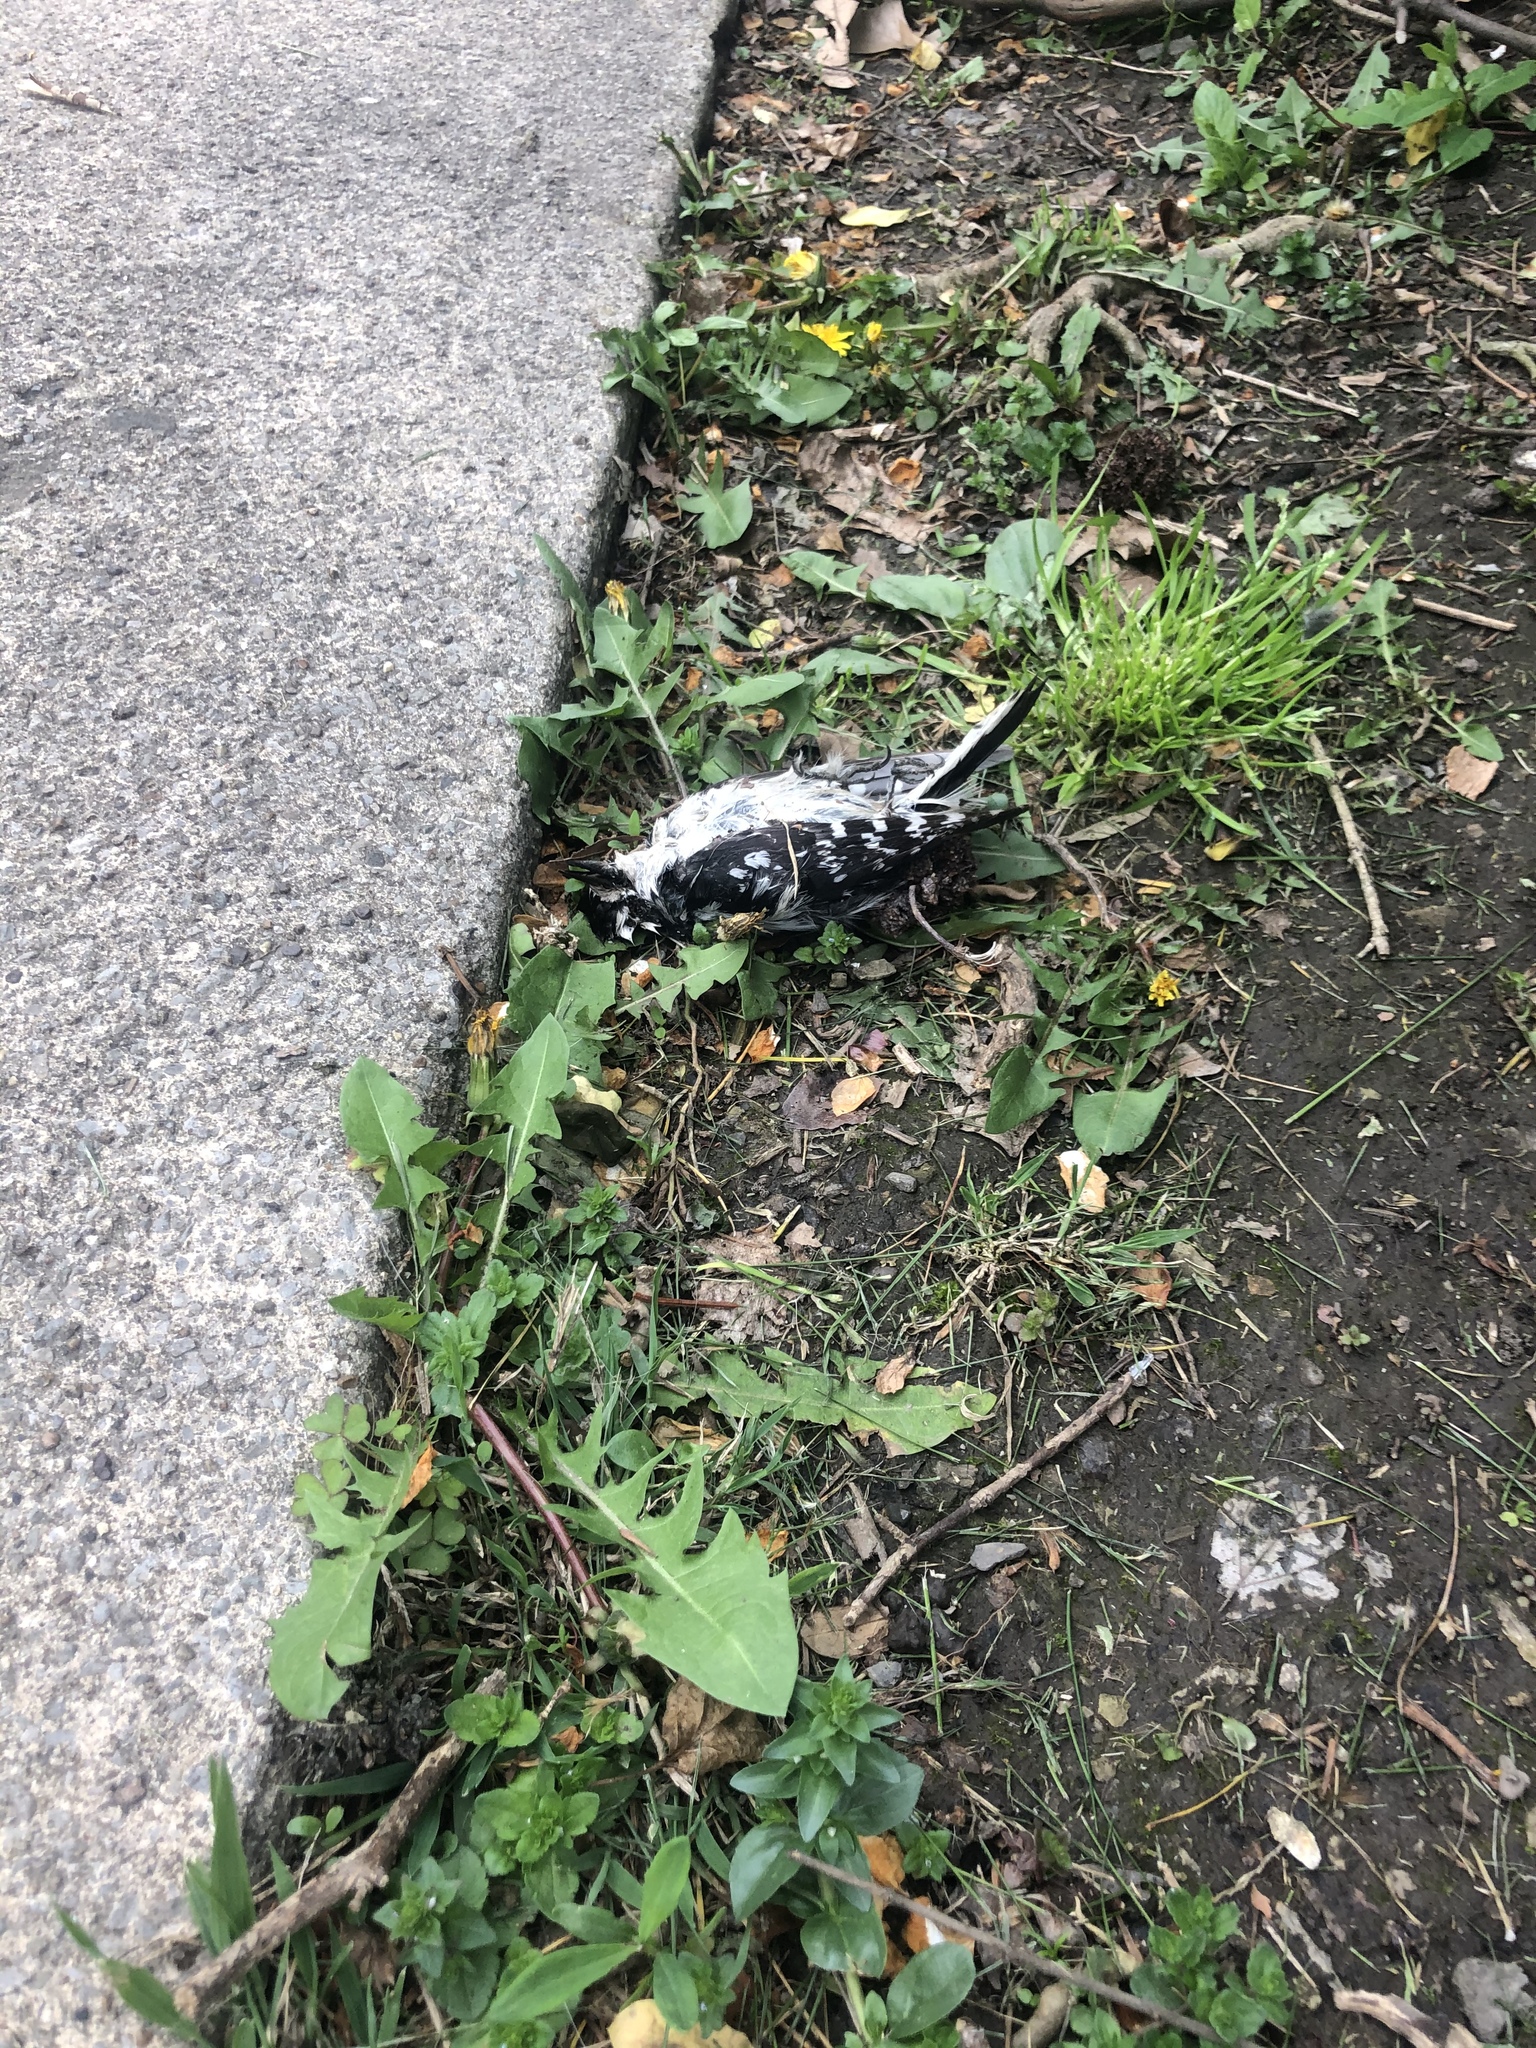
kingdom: Animalia
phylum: Chordata
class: Aves
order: Piciformes
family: Picidae
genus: Dryobates
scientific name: Dryobates pubescens
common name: Downy woodpecker
